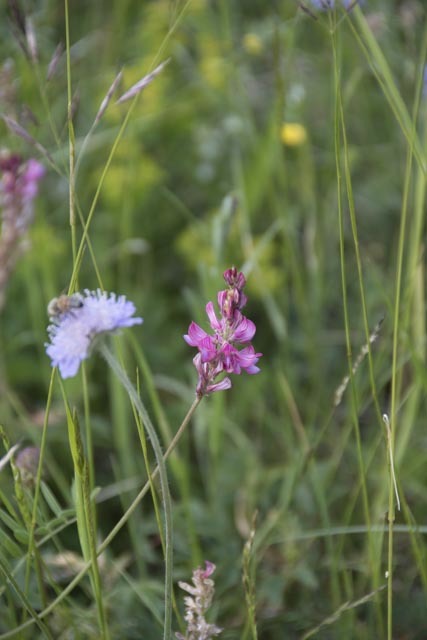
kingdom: Plantae
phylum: Tracheophyta
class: Magnoliopsida
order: Fabales
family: Fabaceae
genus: Onobrychis
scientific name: Onobrychis viciifolia
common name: Sainfoin
